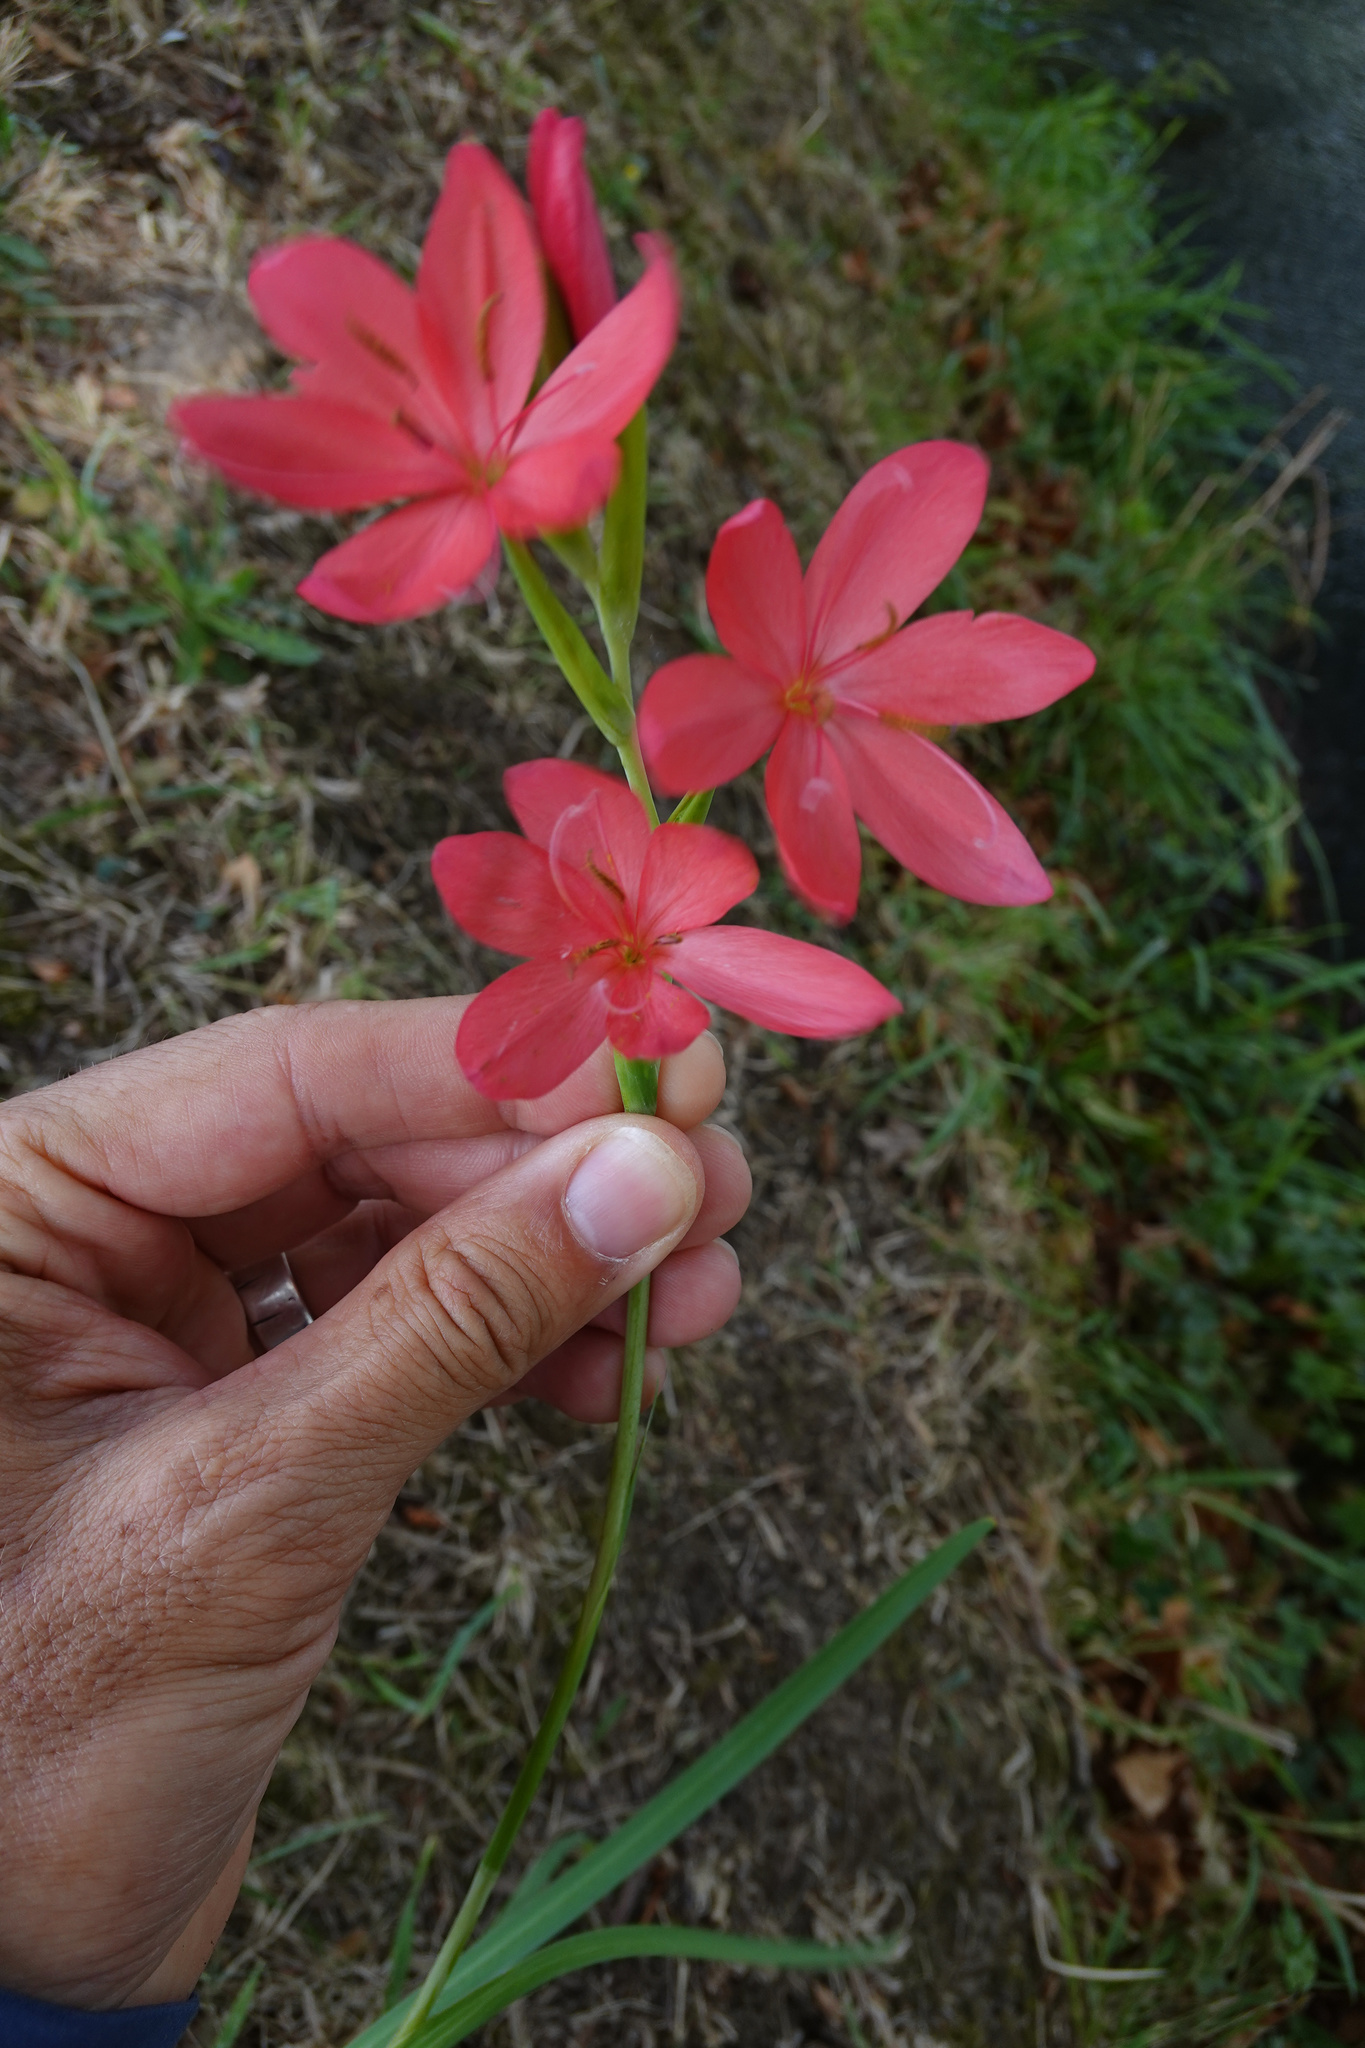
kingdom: Plantae
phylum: Tracheophyta
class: Liliopsida
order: Asparagales
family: Iridaceae
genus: Hesperantha
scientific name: Hesperantha coccinea
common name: River-lily
